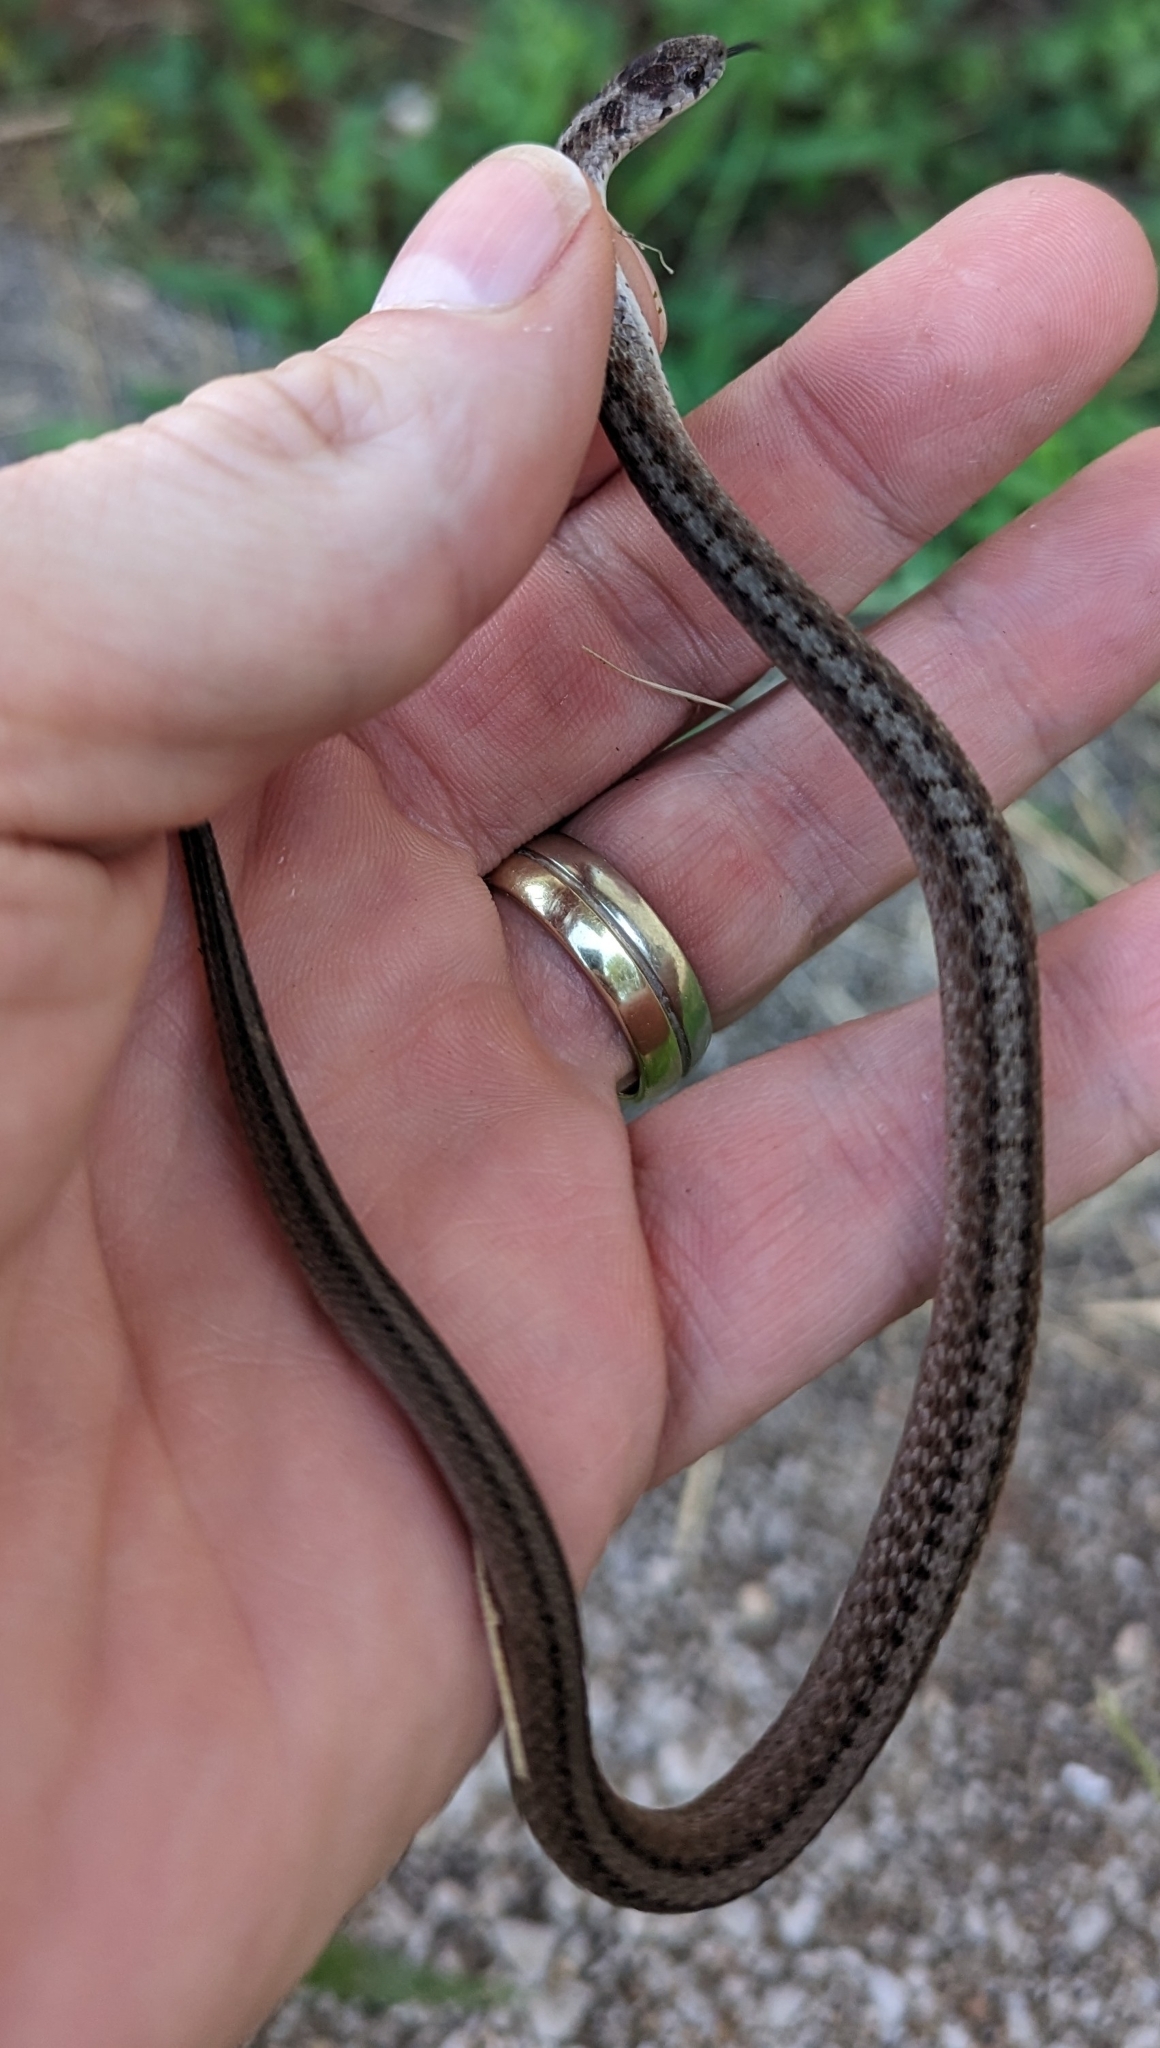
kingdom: Animalia
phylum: Chordata
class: Squamata
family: Colubridae
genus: Storeria
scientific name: Storeria dekayi
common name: (dekay’s) brown snake
